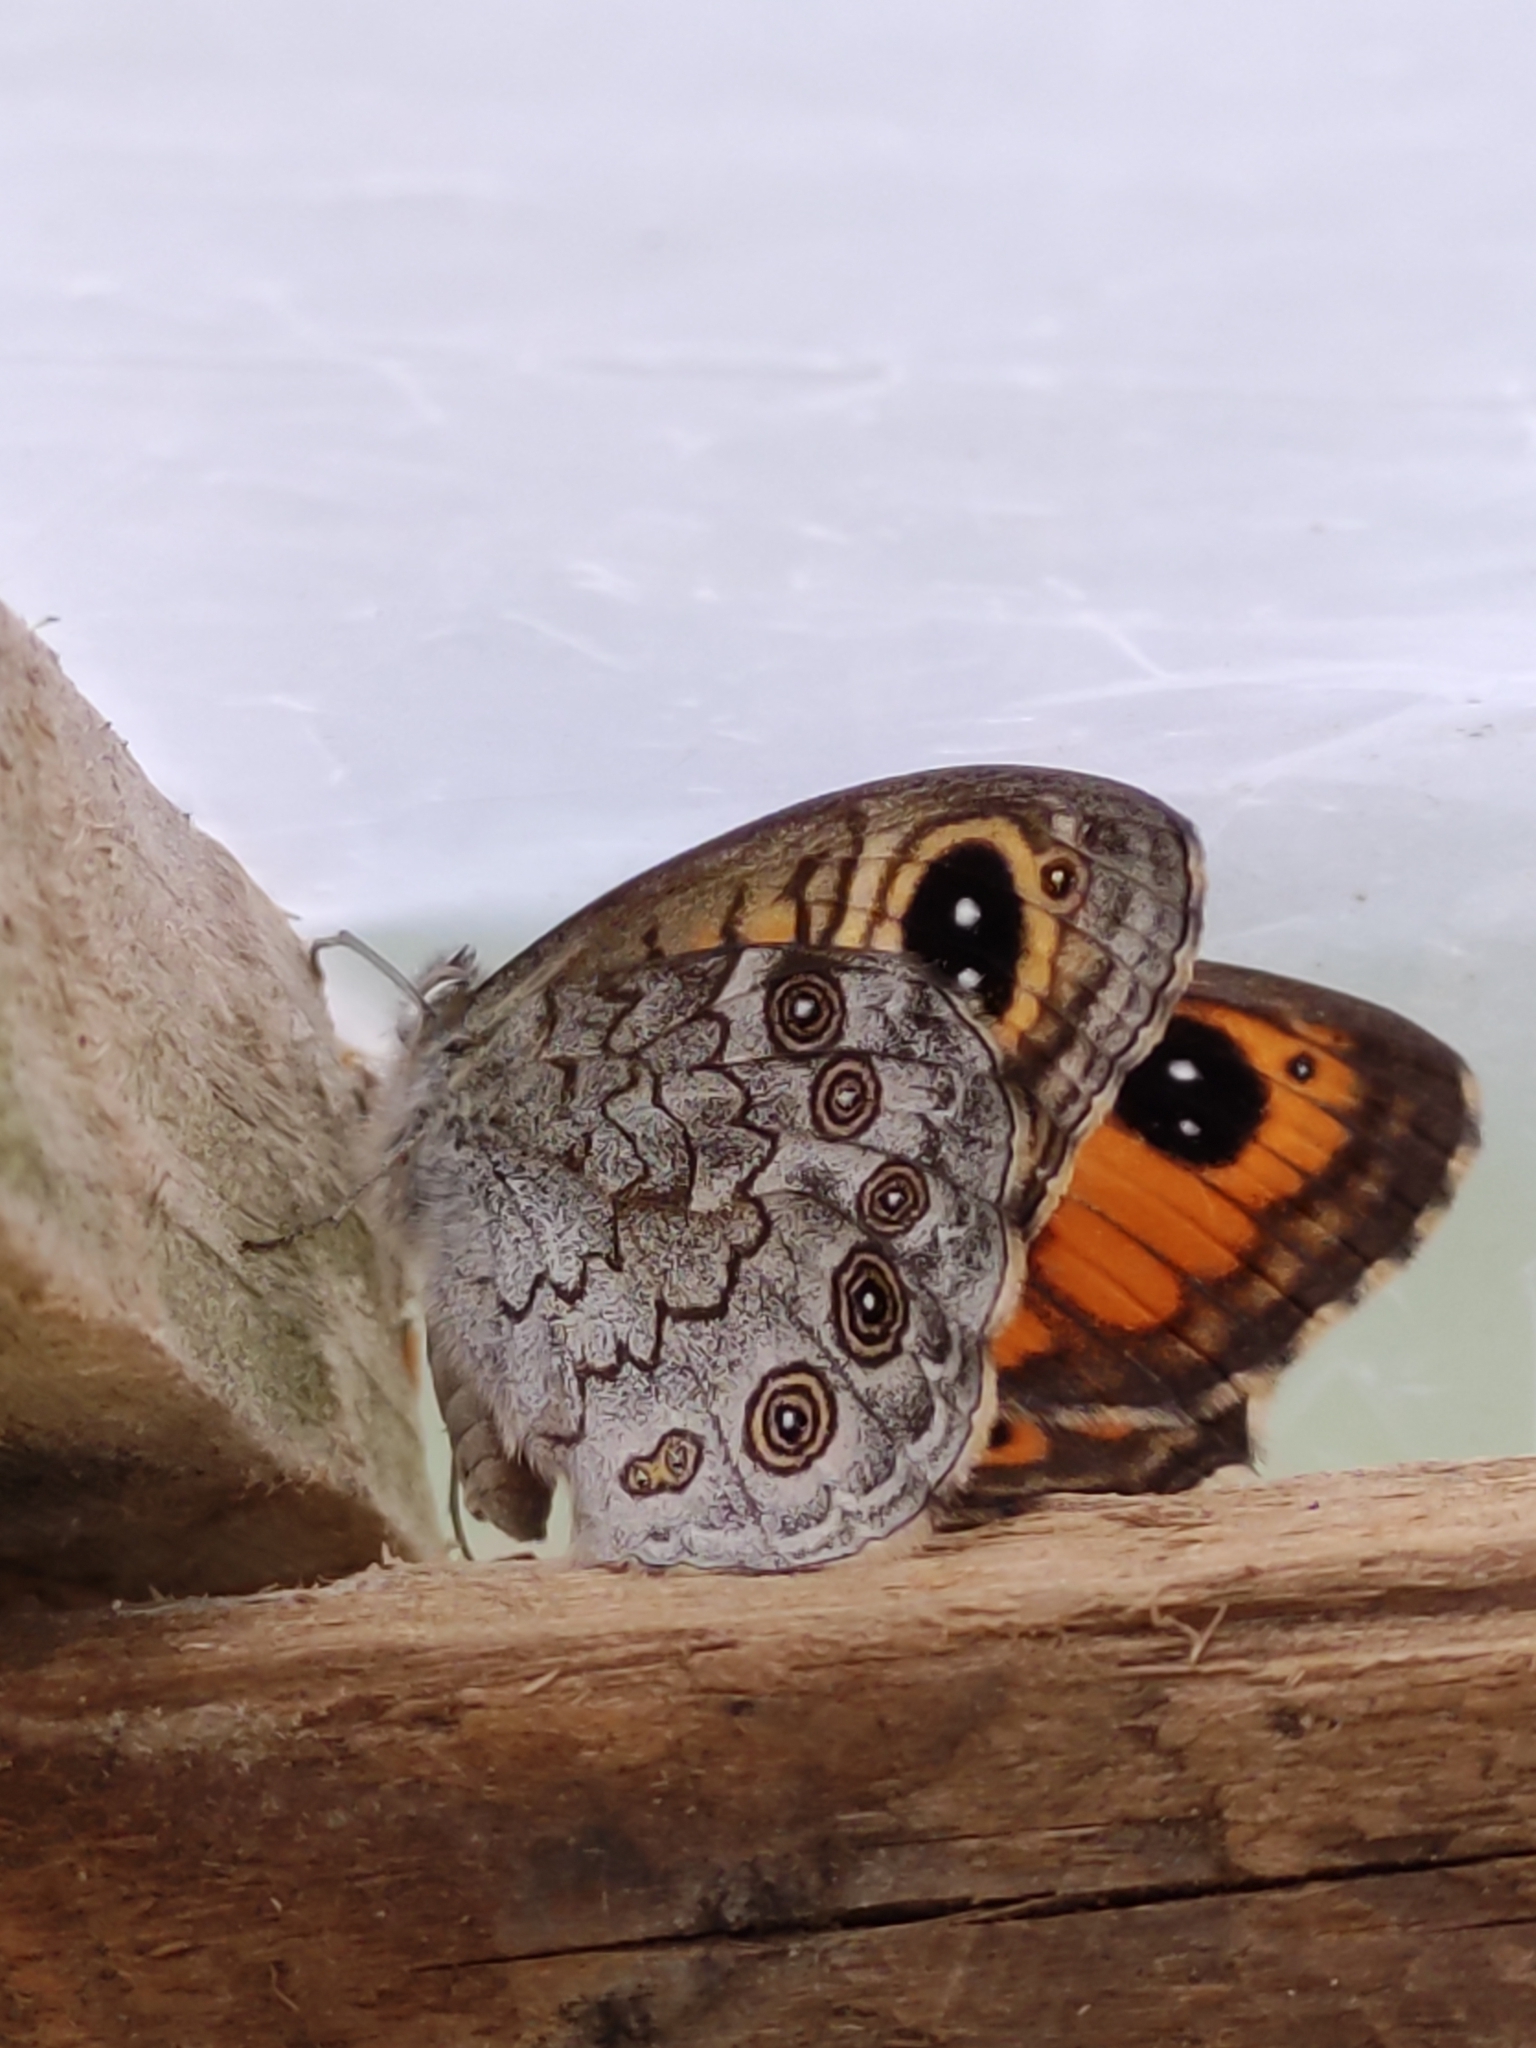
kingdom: Animalia
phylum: Arthropoda
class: Insecta
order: Lepidoptera
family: Nymphalidae
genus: Pararge
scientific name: Pararge Lasiommata maera
